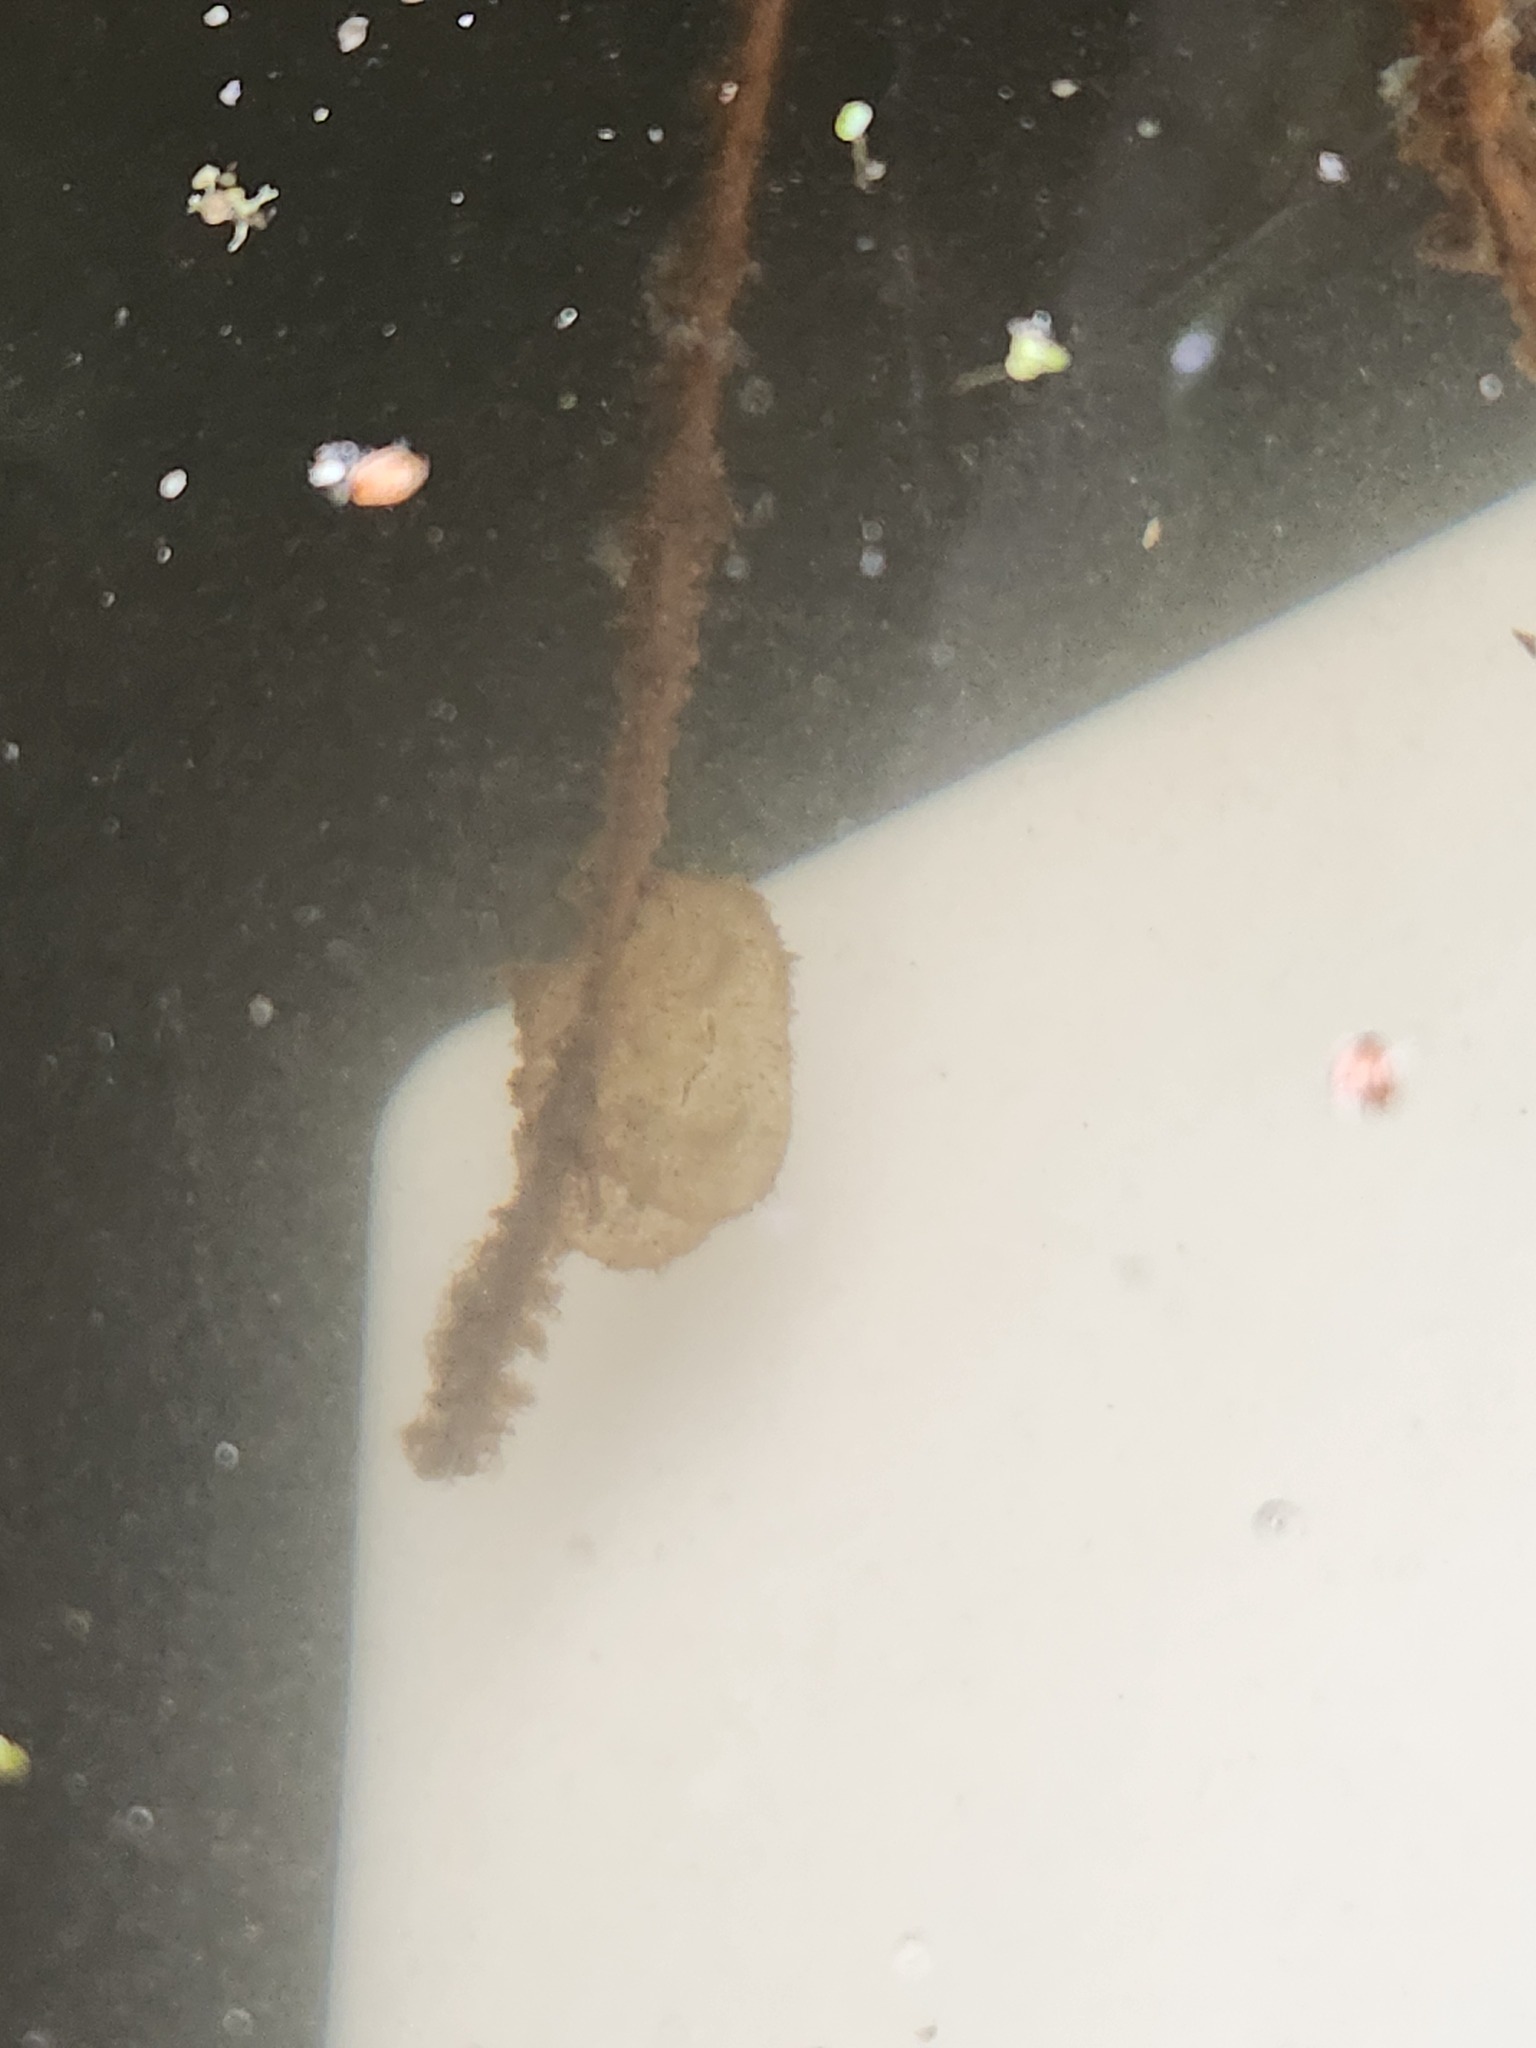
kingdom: Animalia
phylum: Chordata
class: Amphibia
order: Caudata
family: Ambystomatidae
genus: Ambystoma
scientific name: Ambystoma macrodactylum
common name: Long-toed salamander
